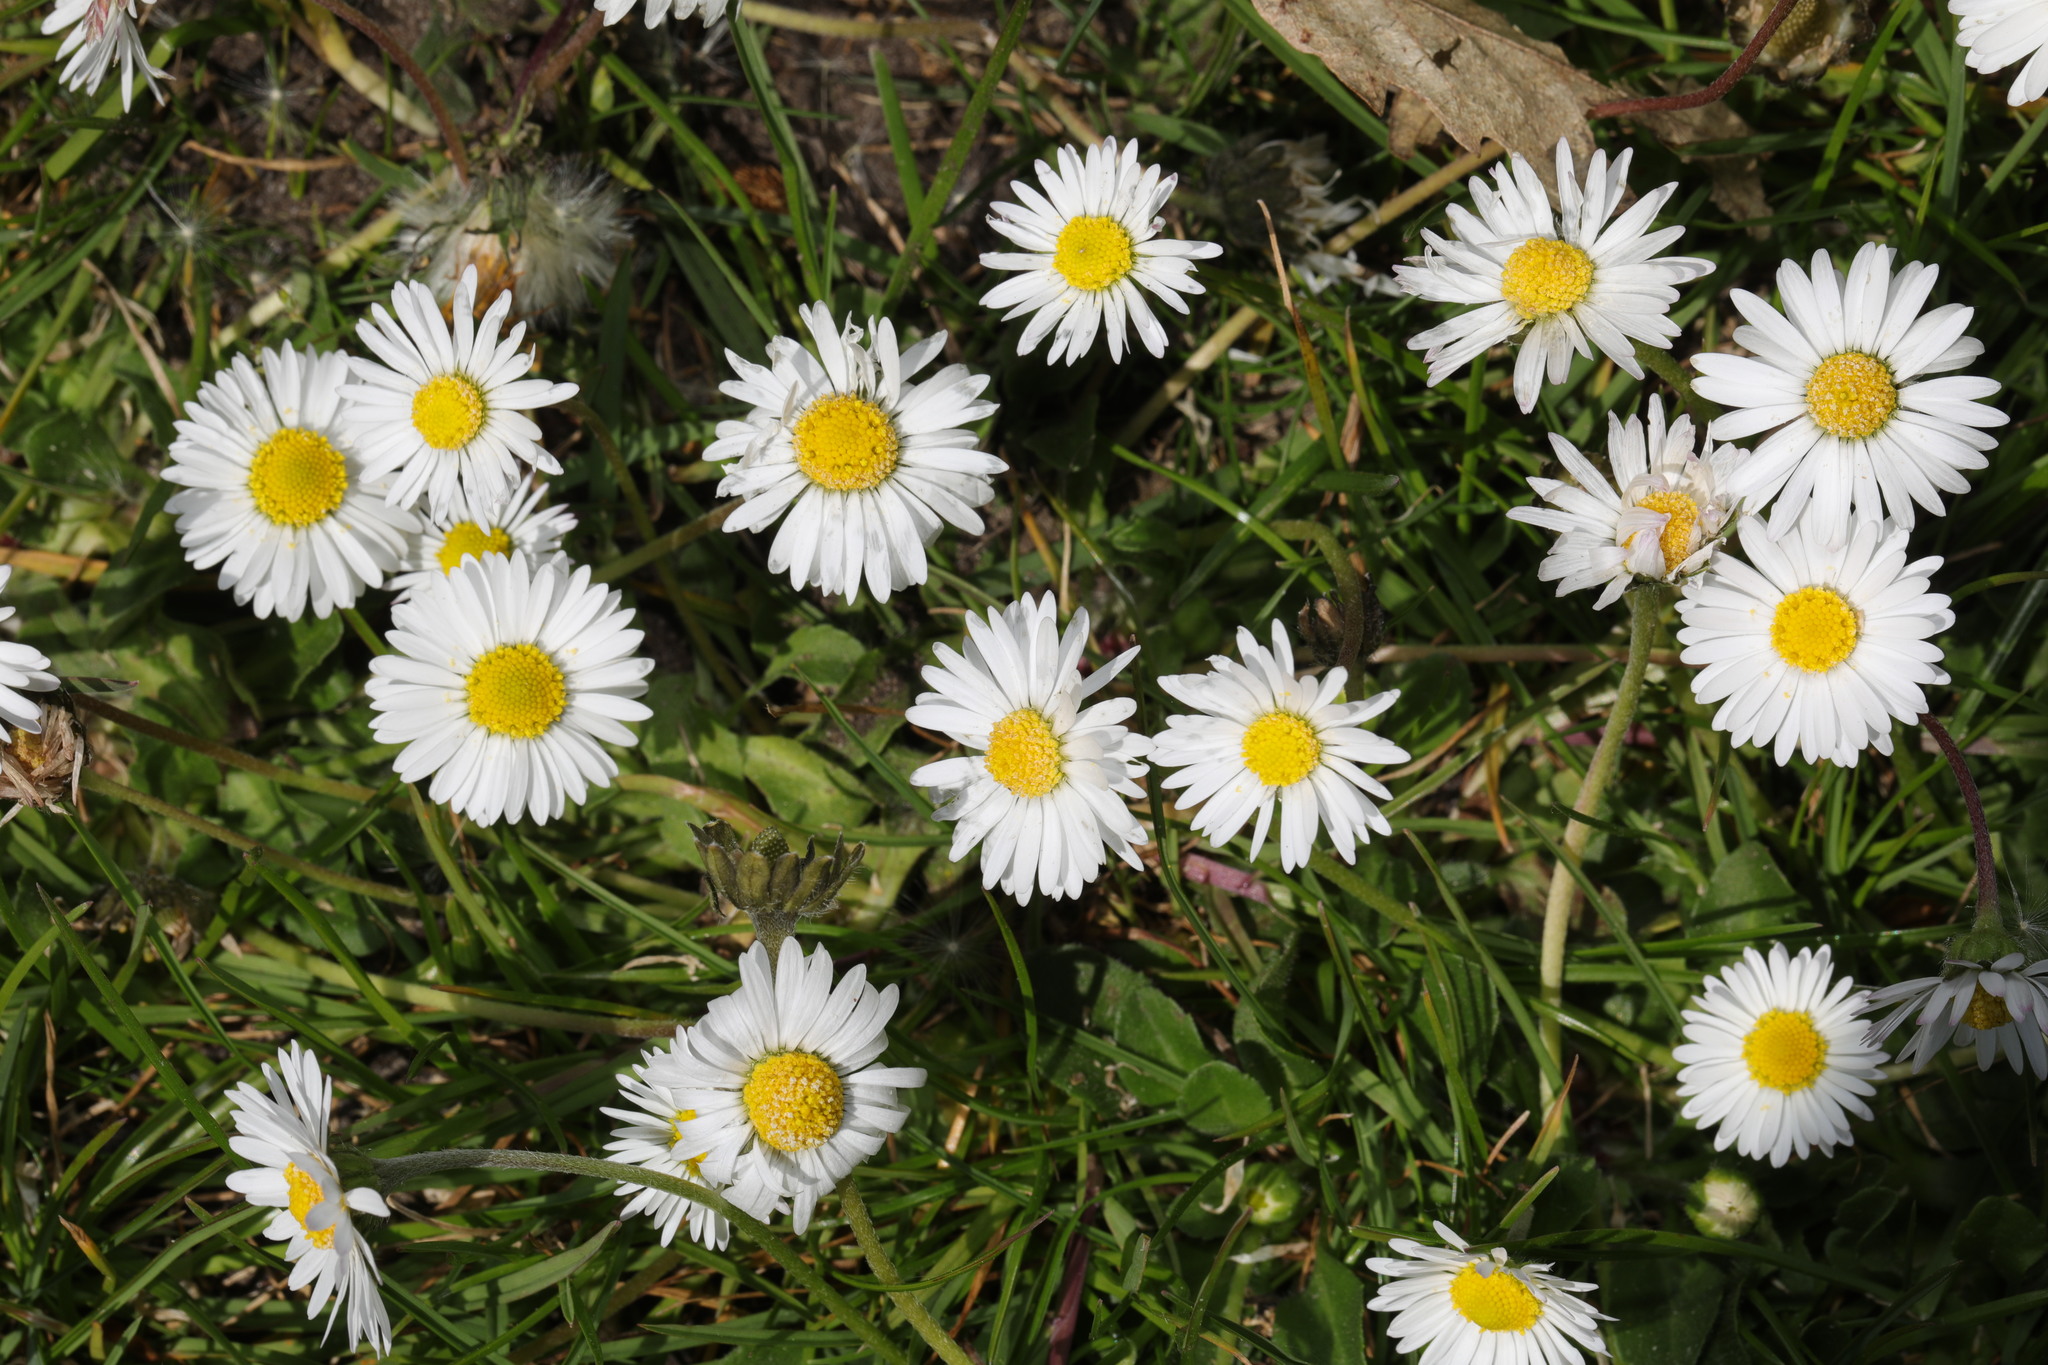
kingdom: Plantae
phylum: Tracheophyta
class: Magnoliopsida
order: Asterales
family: Asteraceae
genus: Bellis
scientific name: Bellis perennis
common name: Lawndaisy
